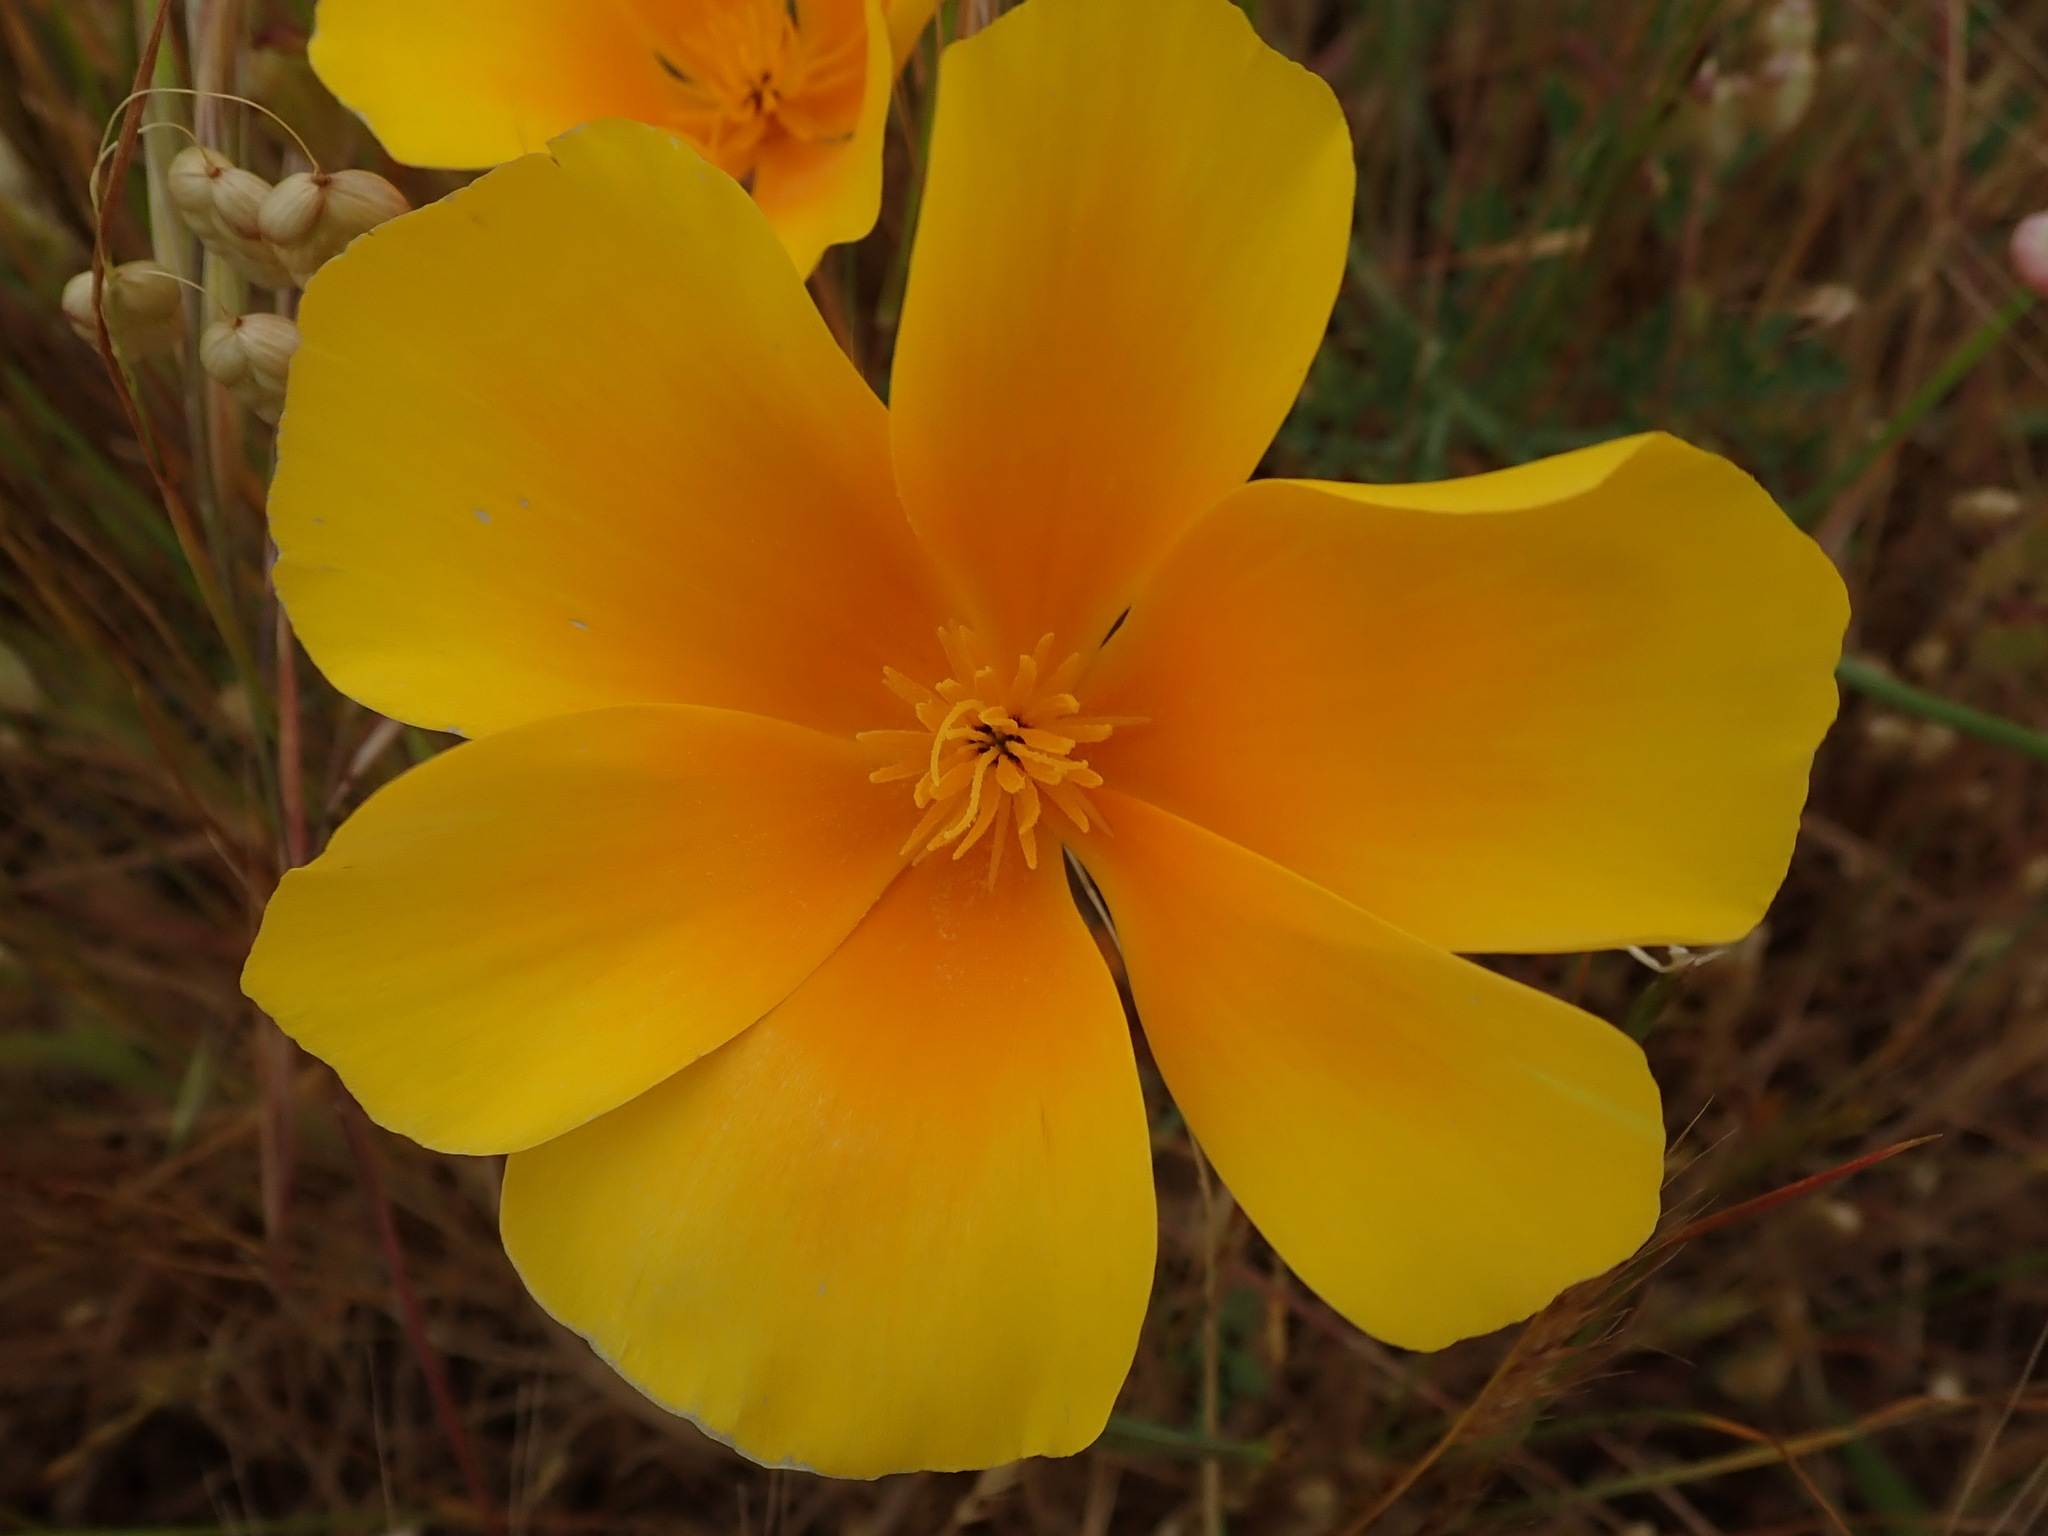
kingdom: Plantae
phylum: Tracheophyta
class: Magnoliopsida
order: Ranunculales
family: Papaveraceae
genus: Eschscholzia
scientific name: Eschscholzia californica
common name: California poppy
